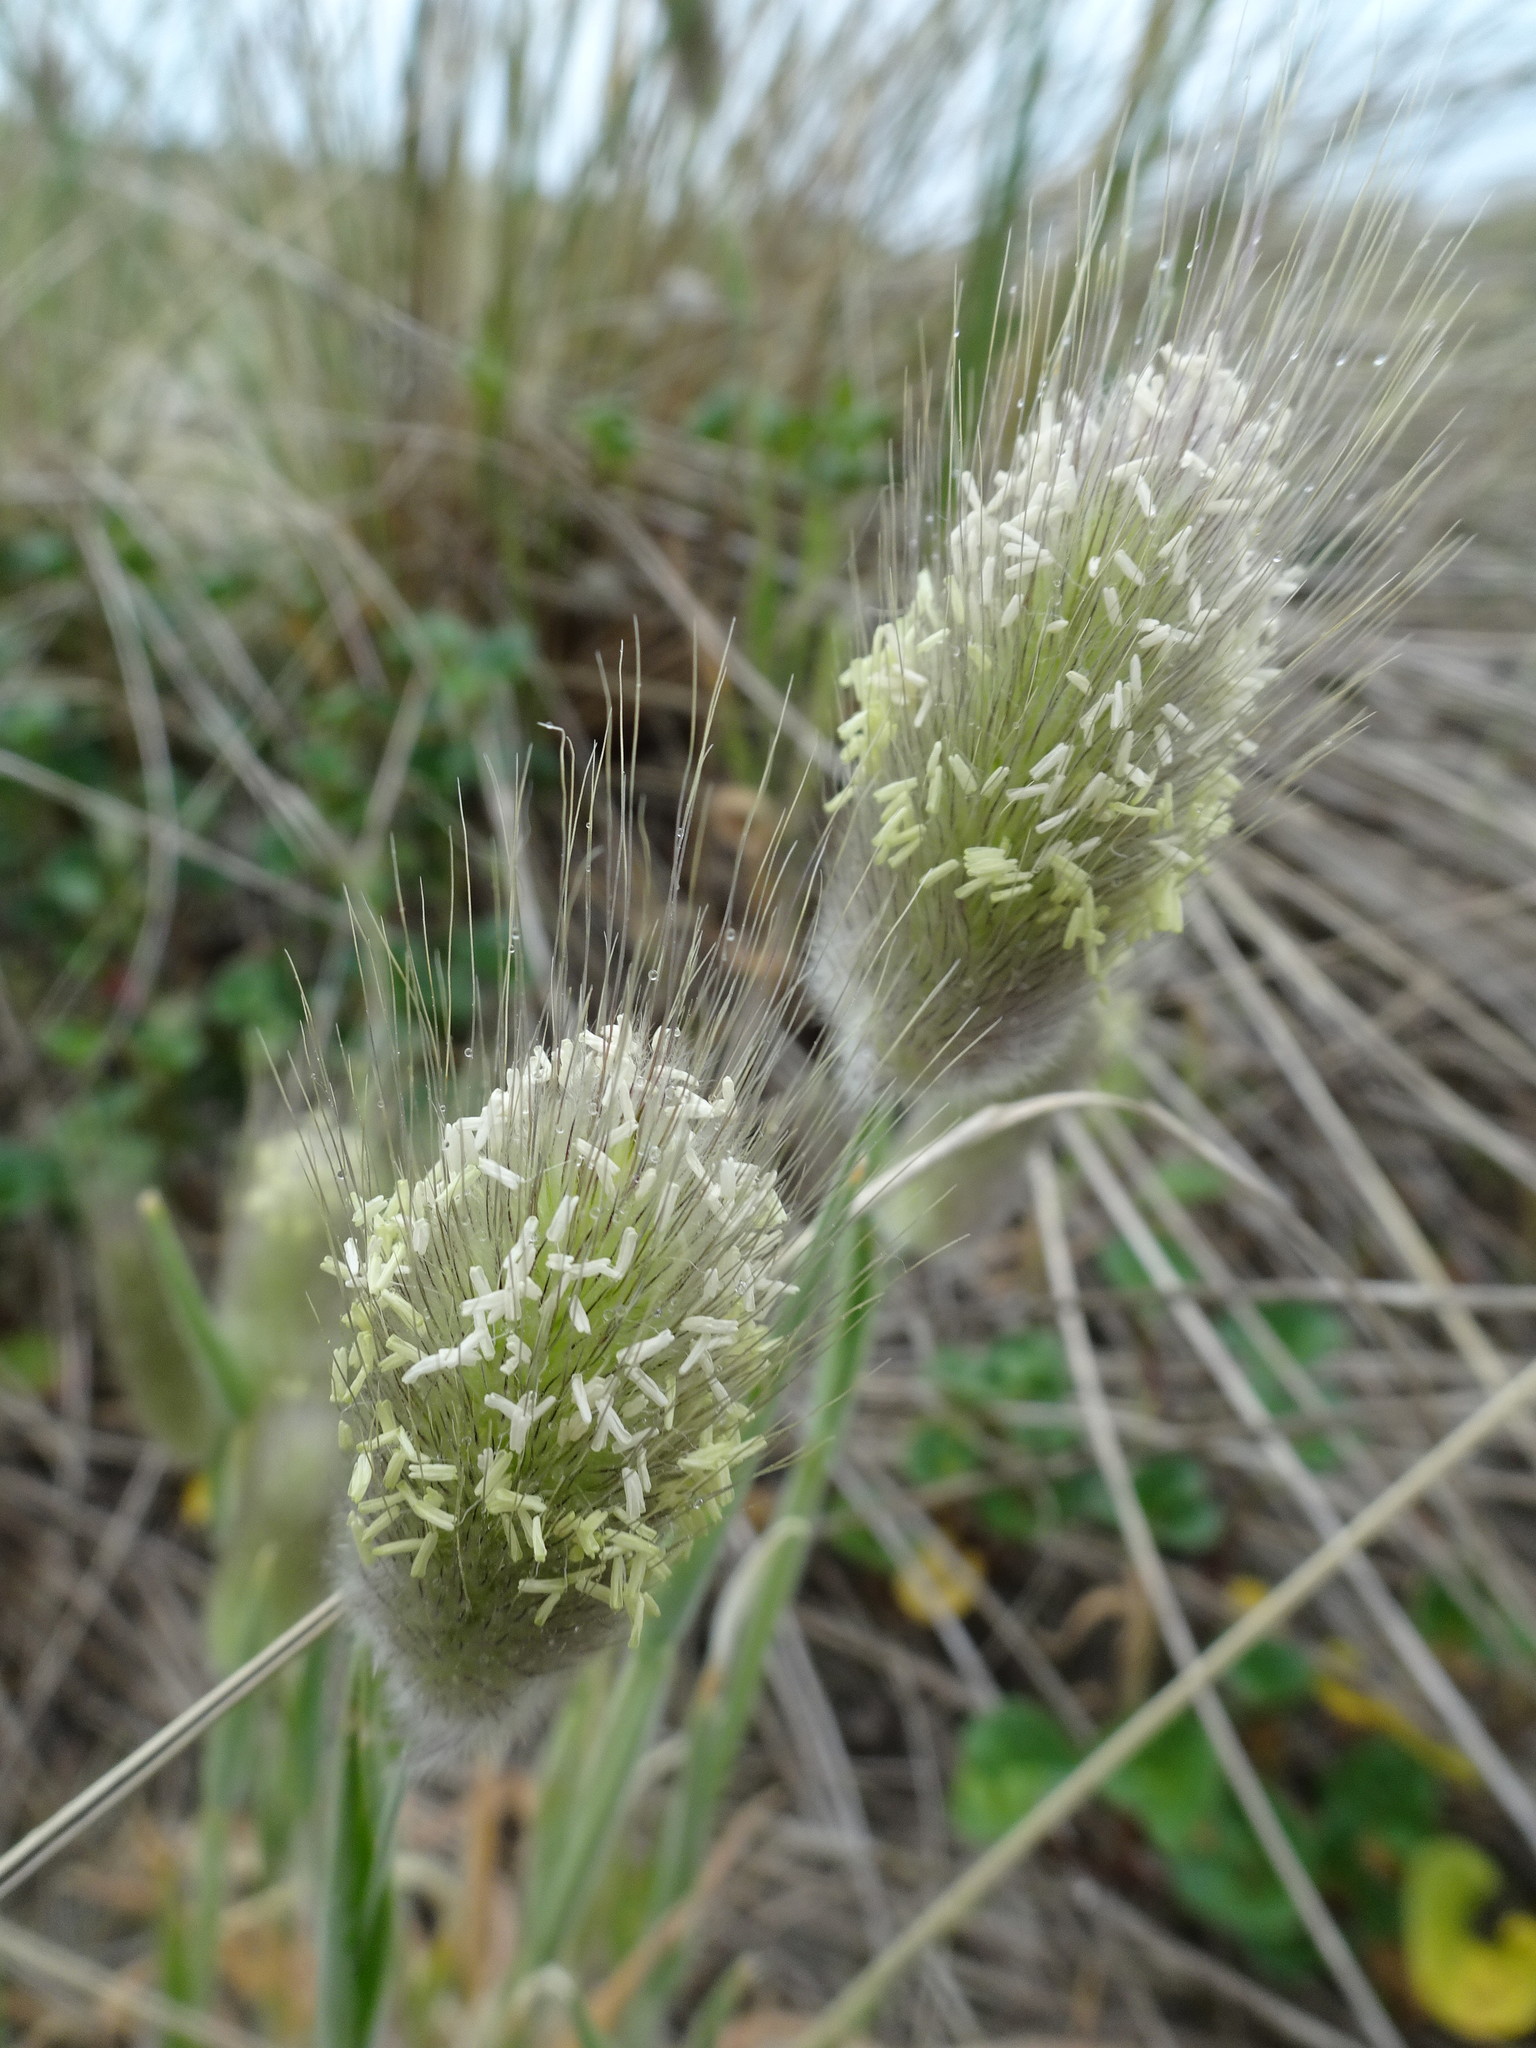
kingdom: Plantae
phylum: Tracheophyta
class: Liliopsida
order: Poales
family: Poaceae
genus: Lagurus
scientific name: Lagurus ovatus
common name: Hare's-tail
